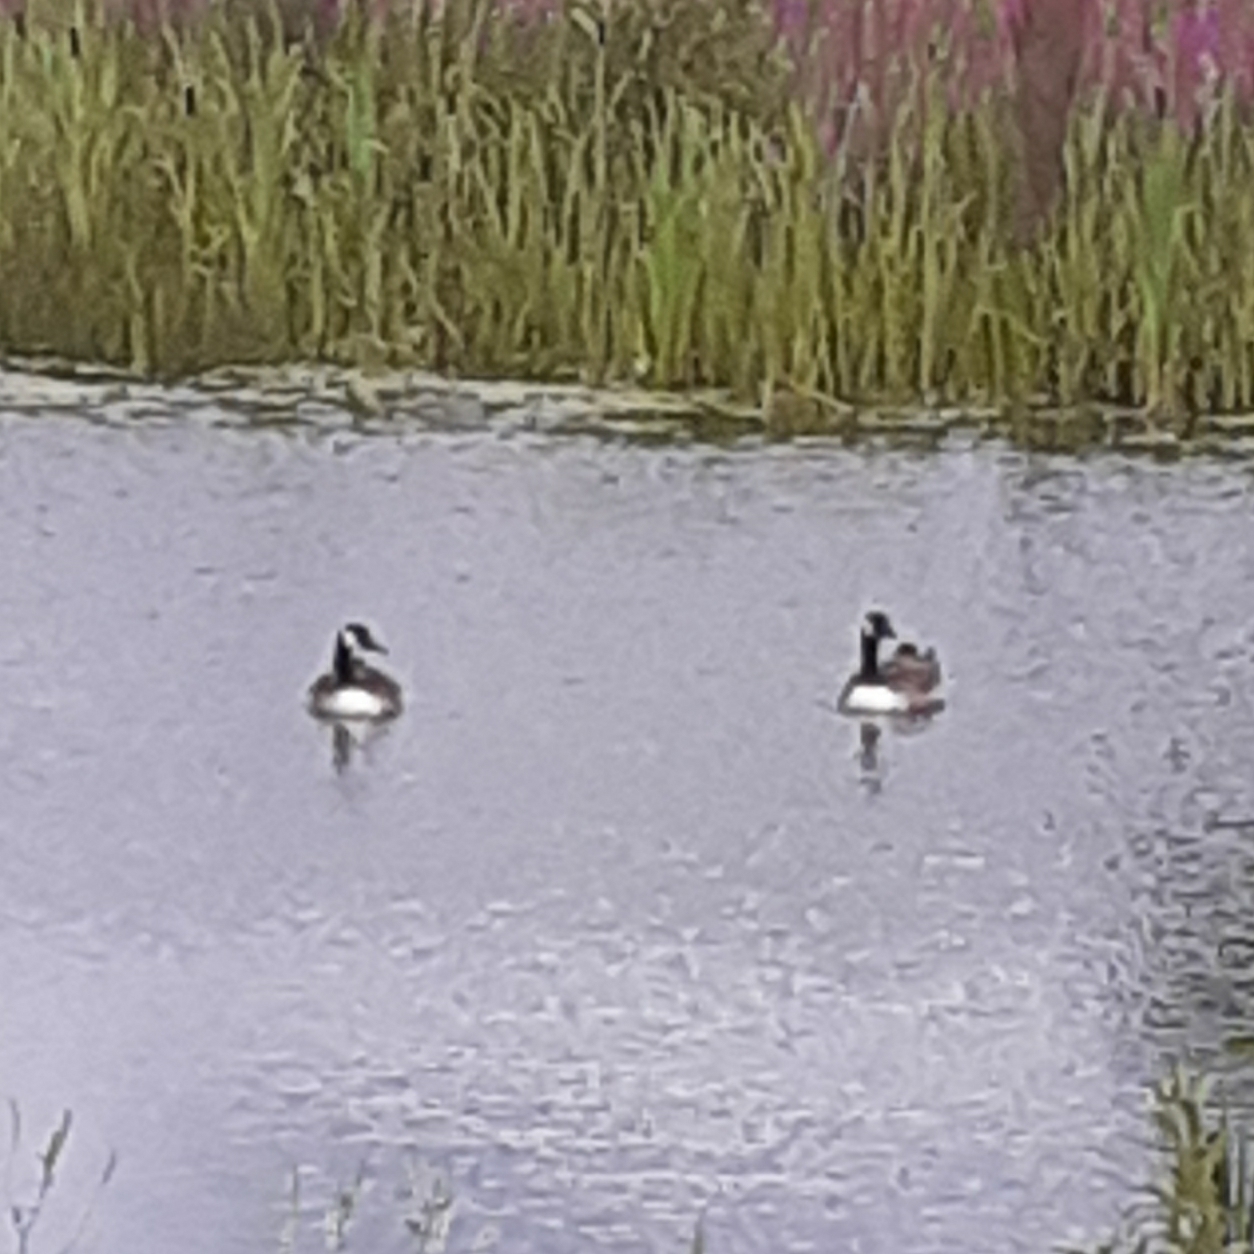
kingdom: Animalia
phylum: Chordata
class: Aves
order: Anseriformes
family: Anatidae
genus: Branta
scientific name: Branta canadensis
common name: Canada goose
